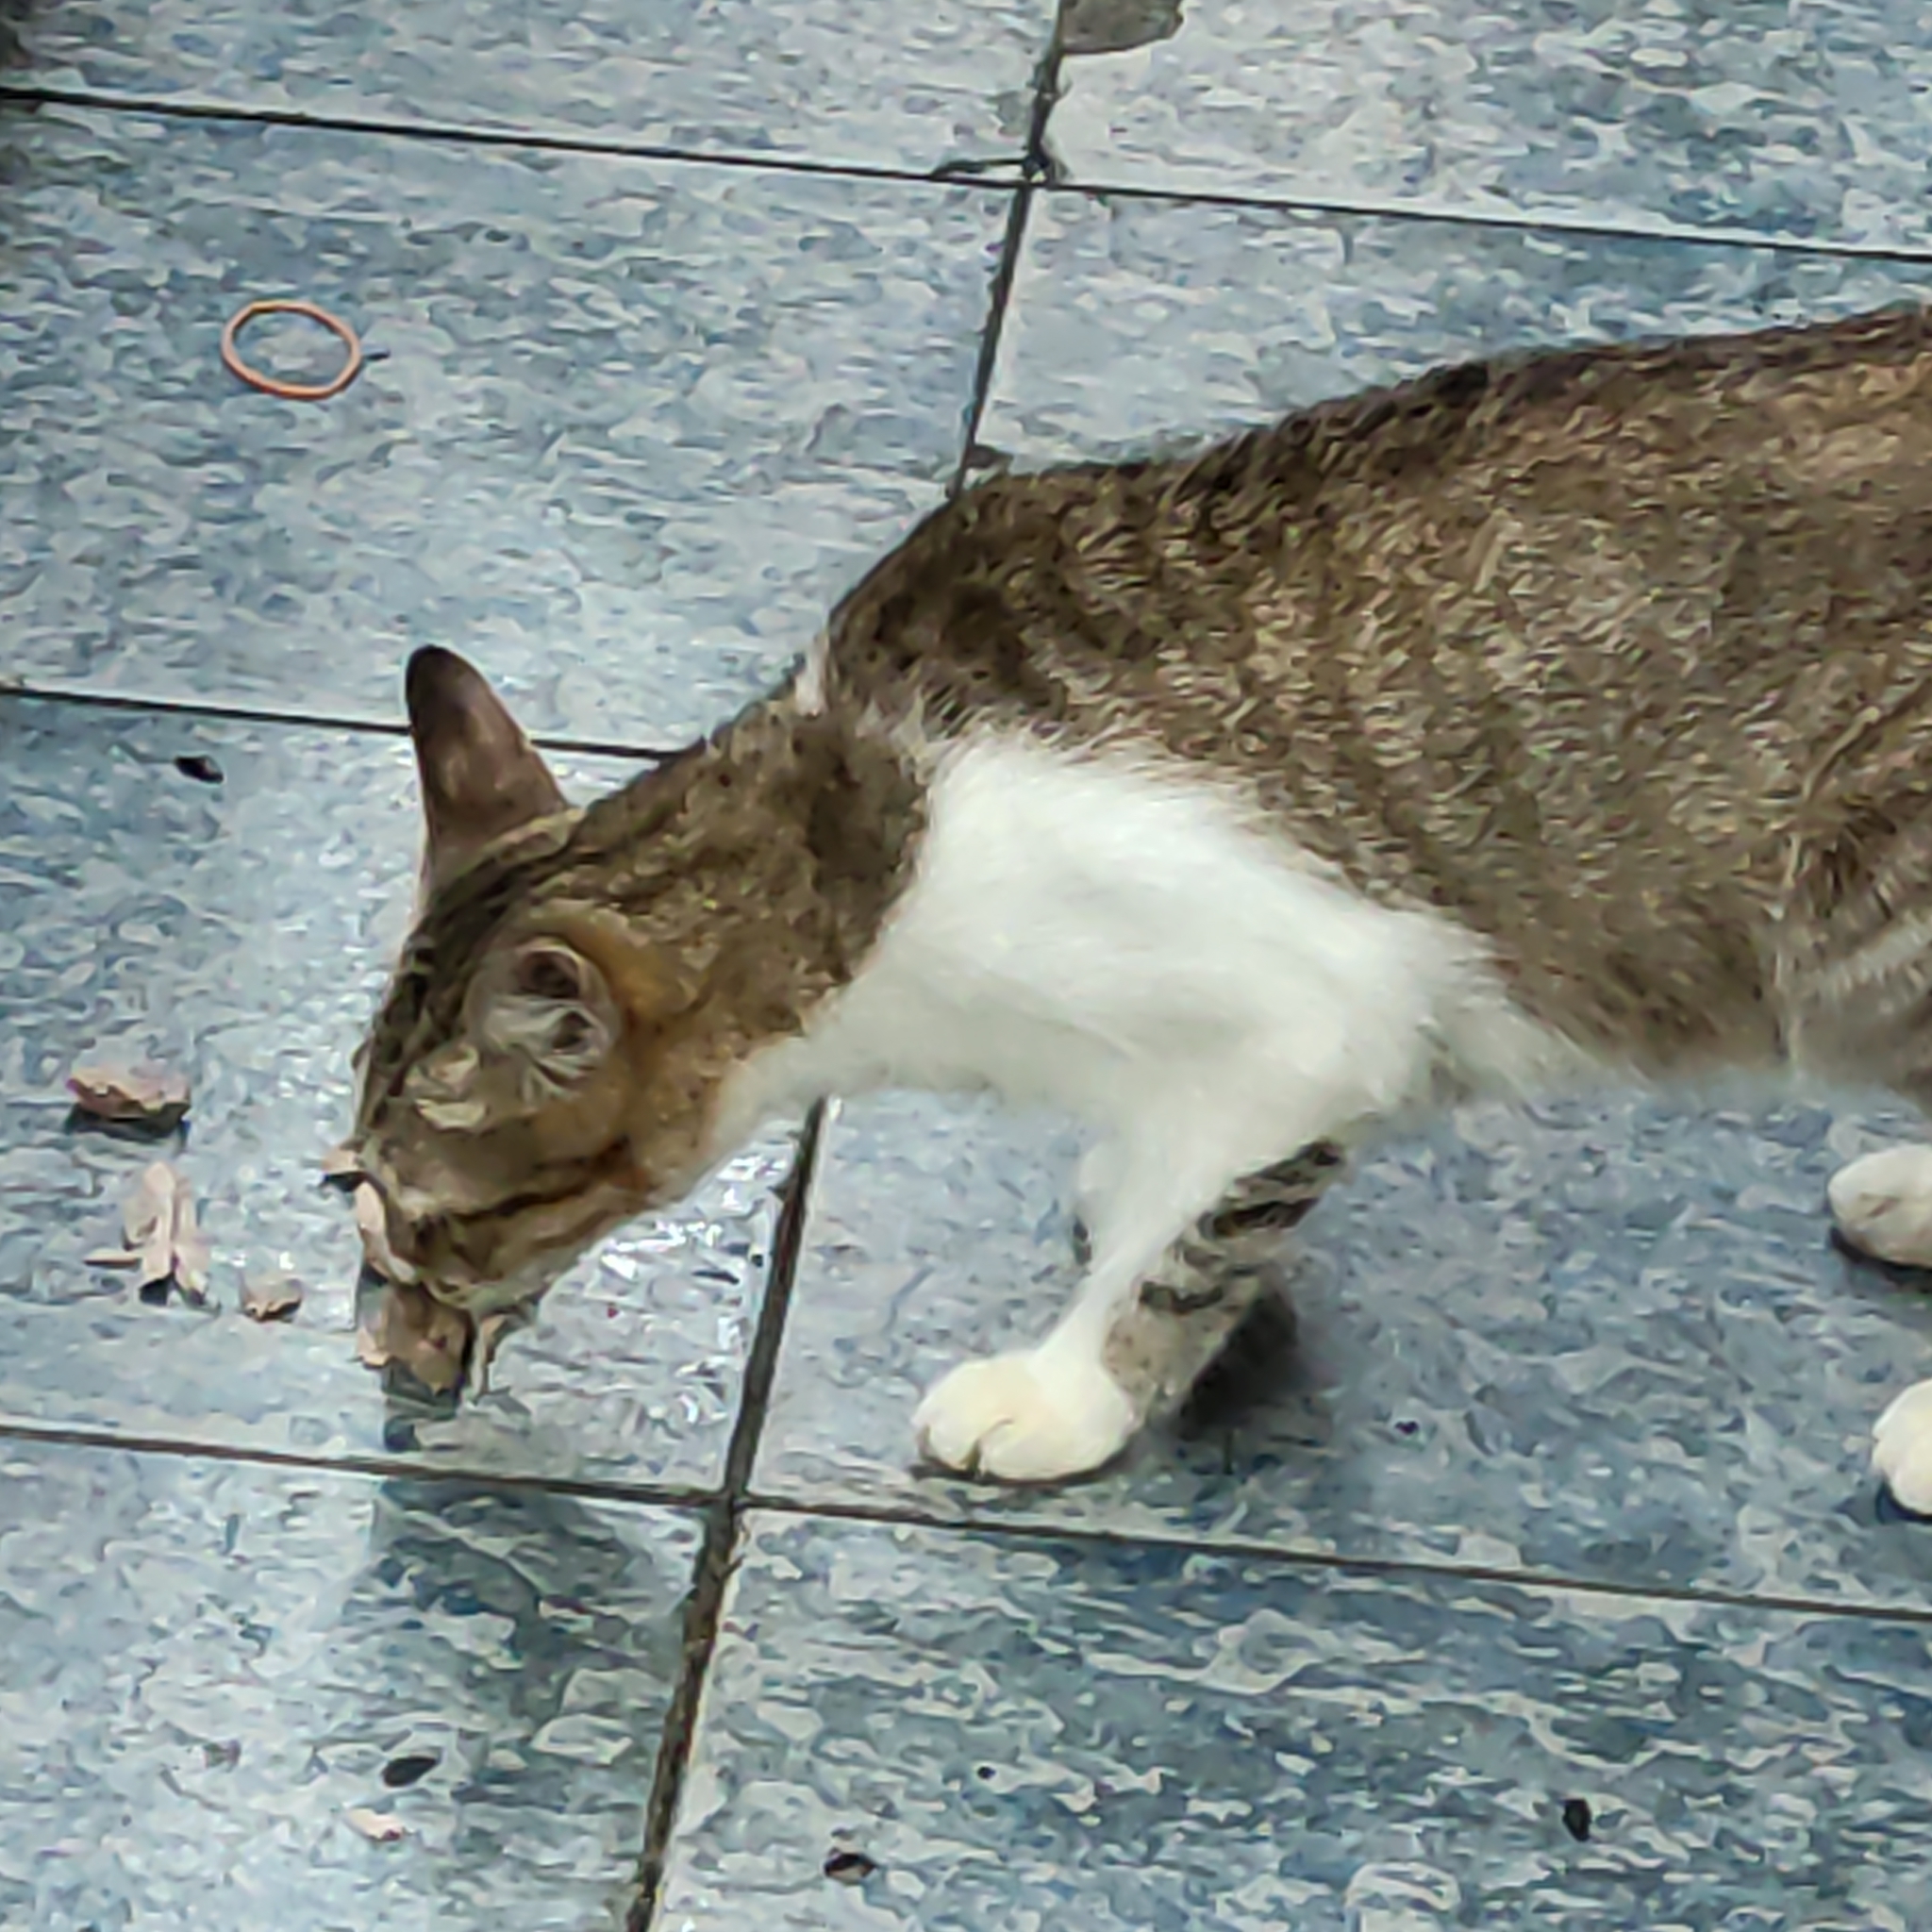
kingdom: Animalia
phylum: Chordata
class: Mammalia
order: Carnivora
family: Felidae
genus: Felis
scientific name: Felis catus
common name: Domestic cat
